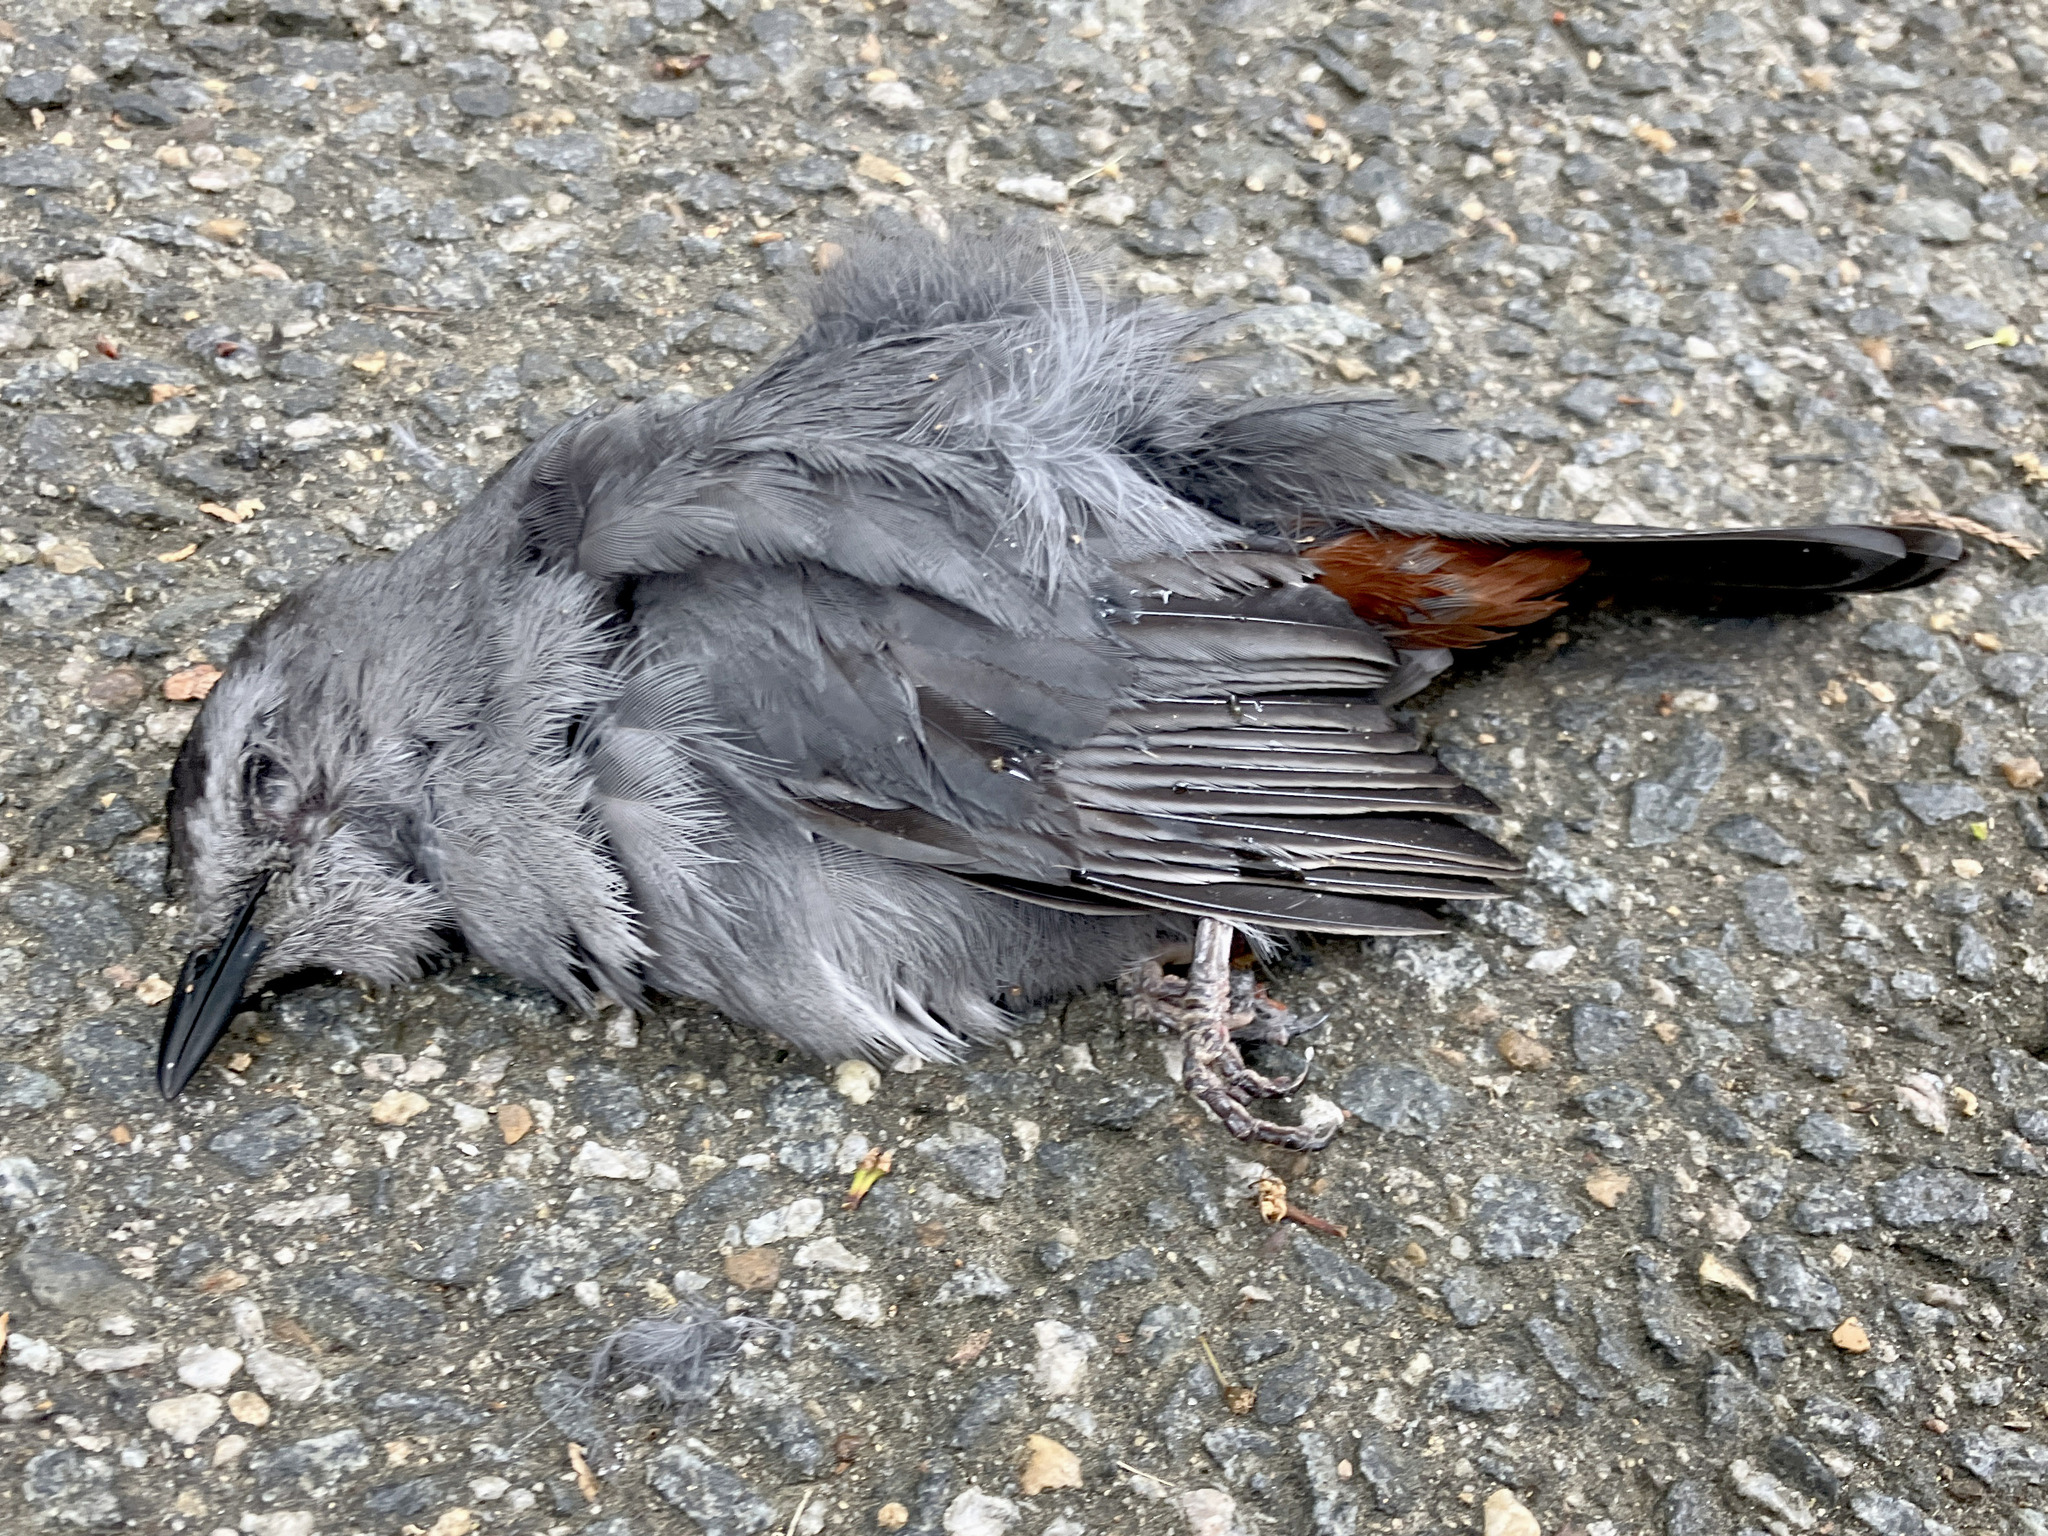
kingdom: Animalia
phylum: Chordata
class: Aves
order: Passeriformes
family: Mimidae
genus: Dumetella
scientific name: Dumetella carolinensis
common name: Gray catbird
